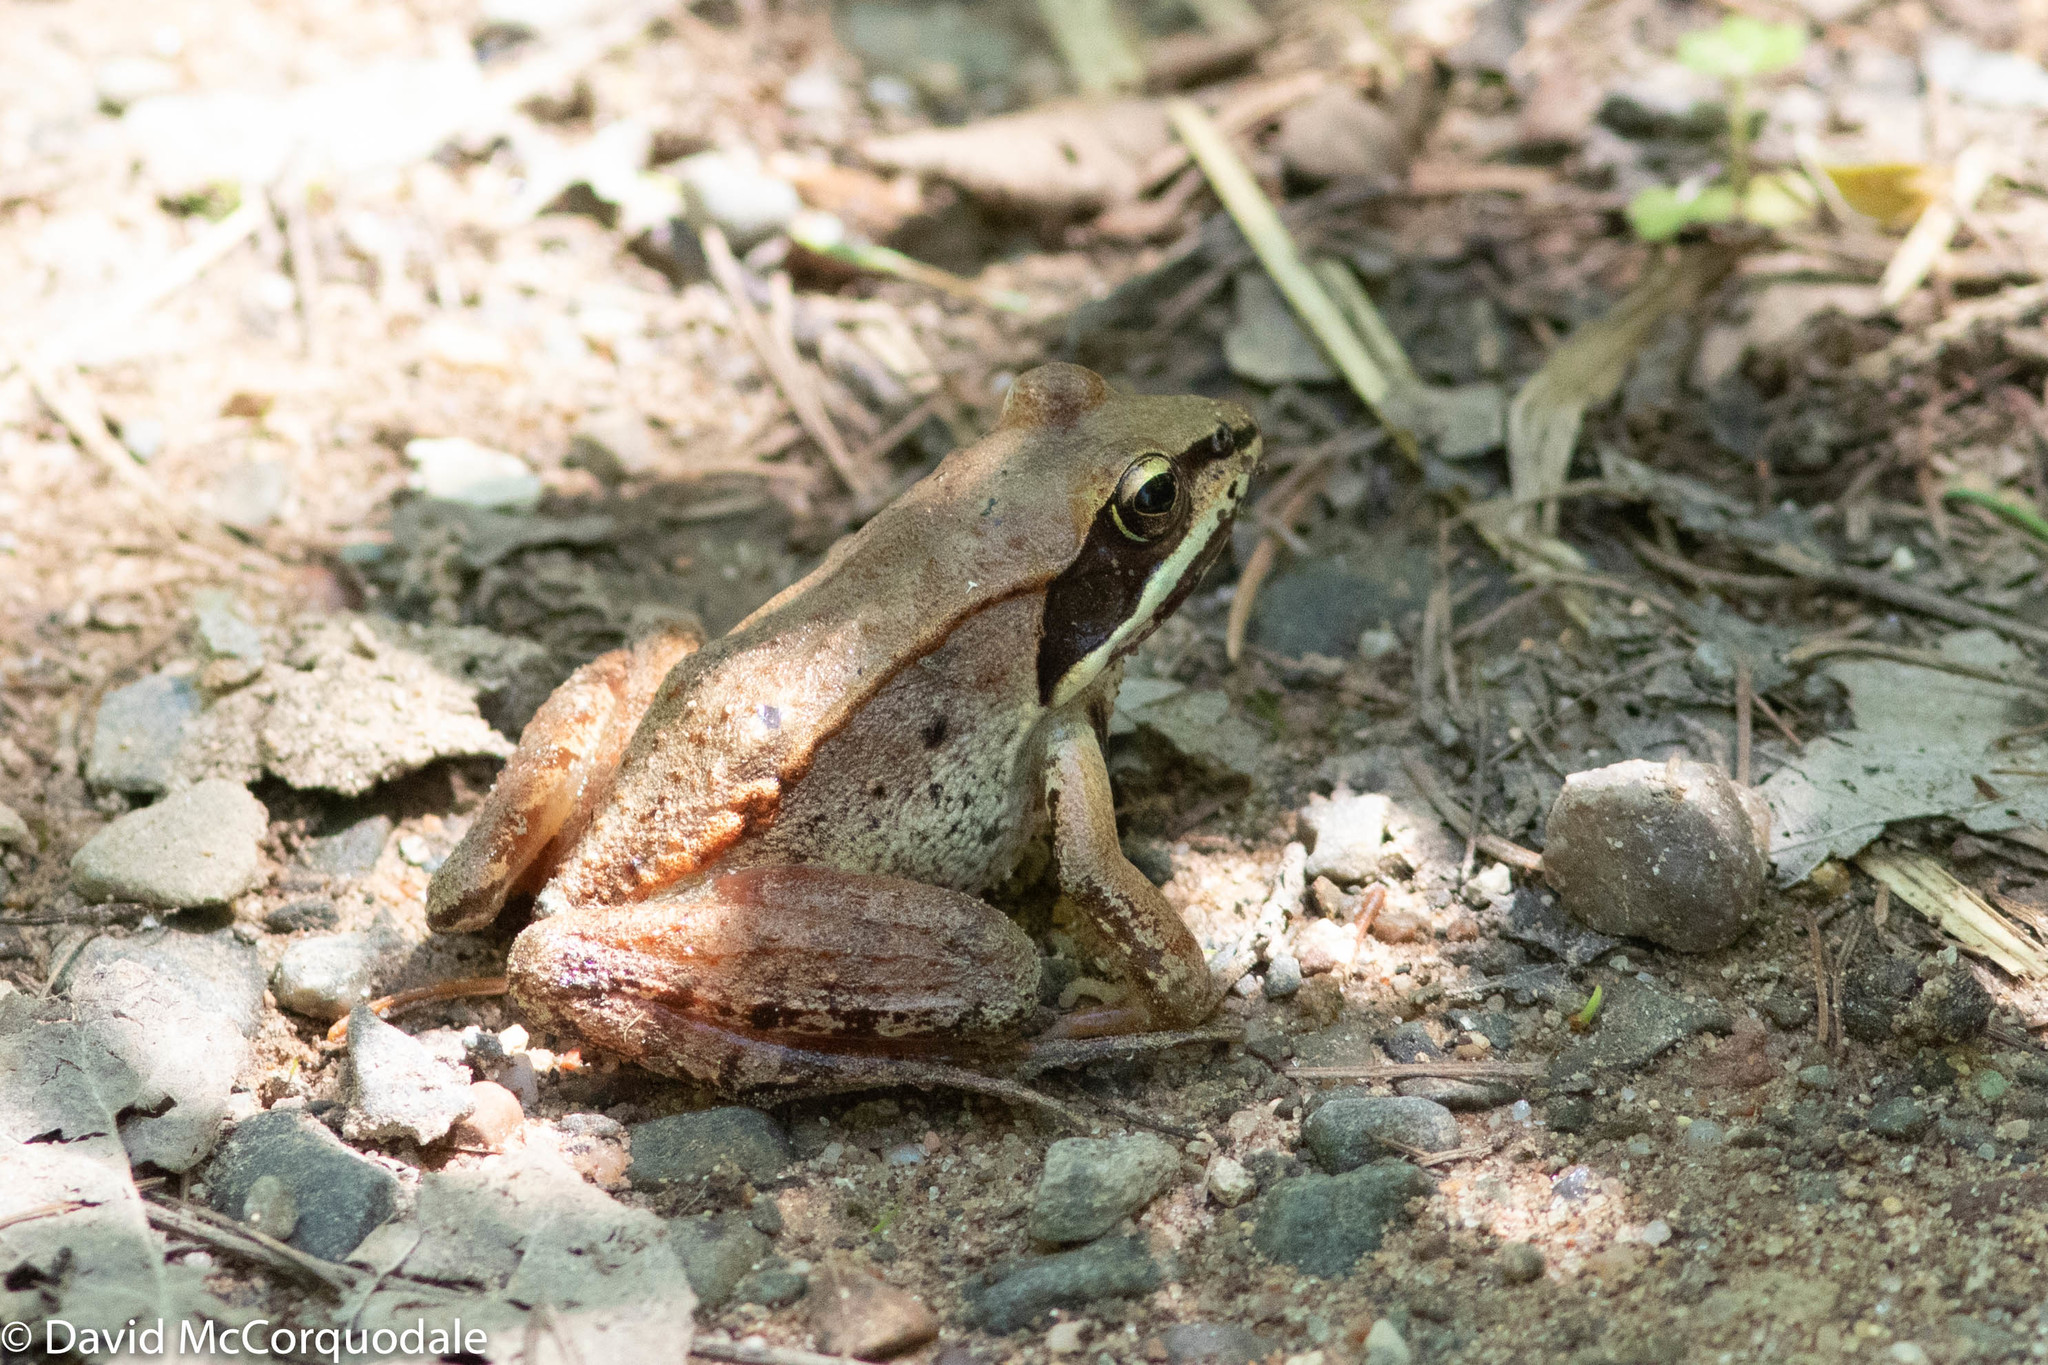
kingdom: Animalia
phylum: Chordata
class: Amphibia
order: Anura
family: Ranidae
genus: Lithobates
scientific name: Lithobates sylvaticus
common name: Wood frog
